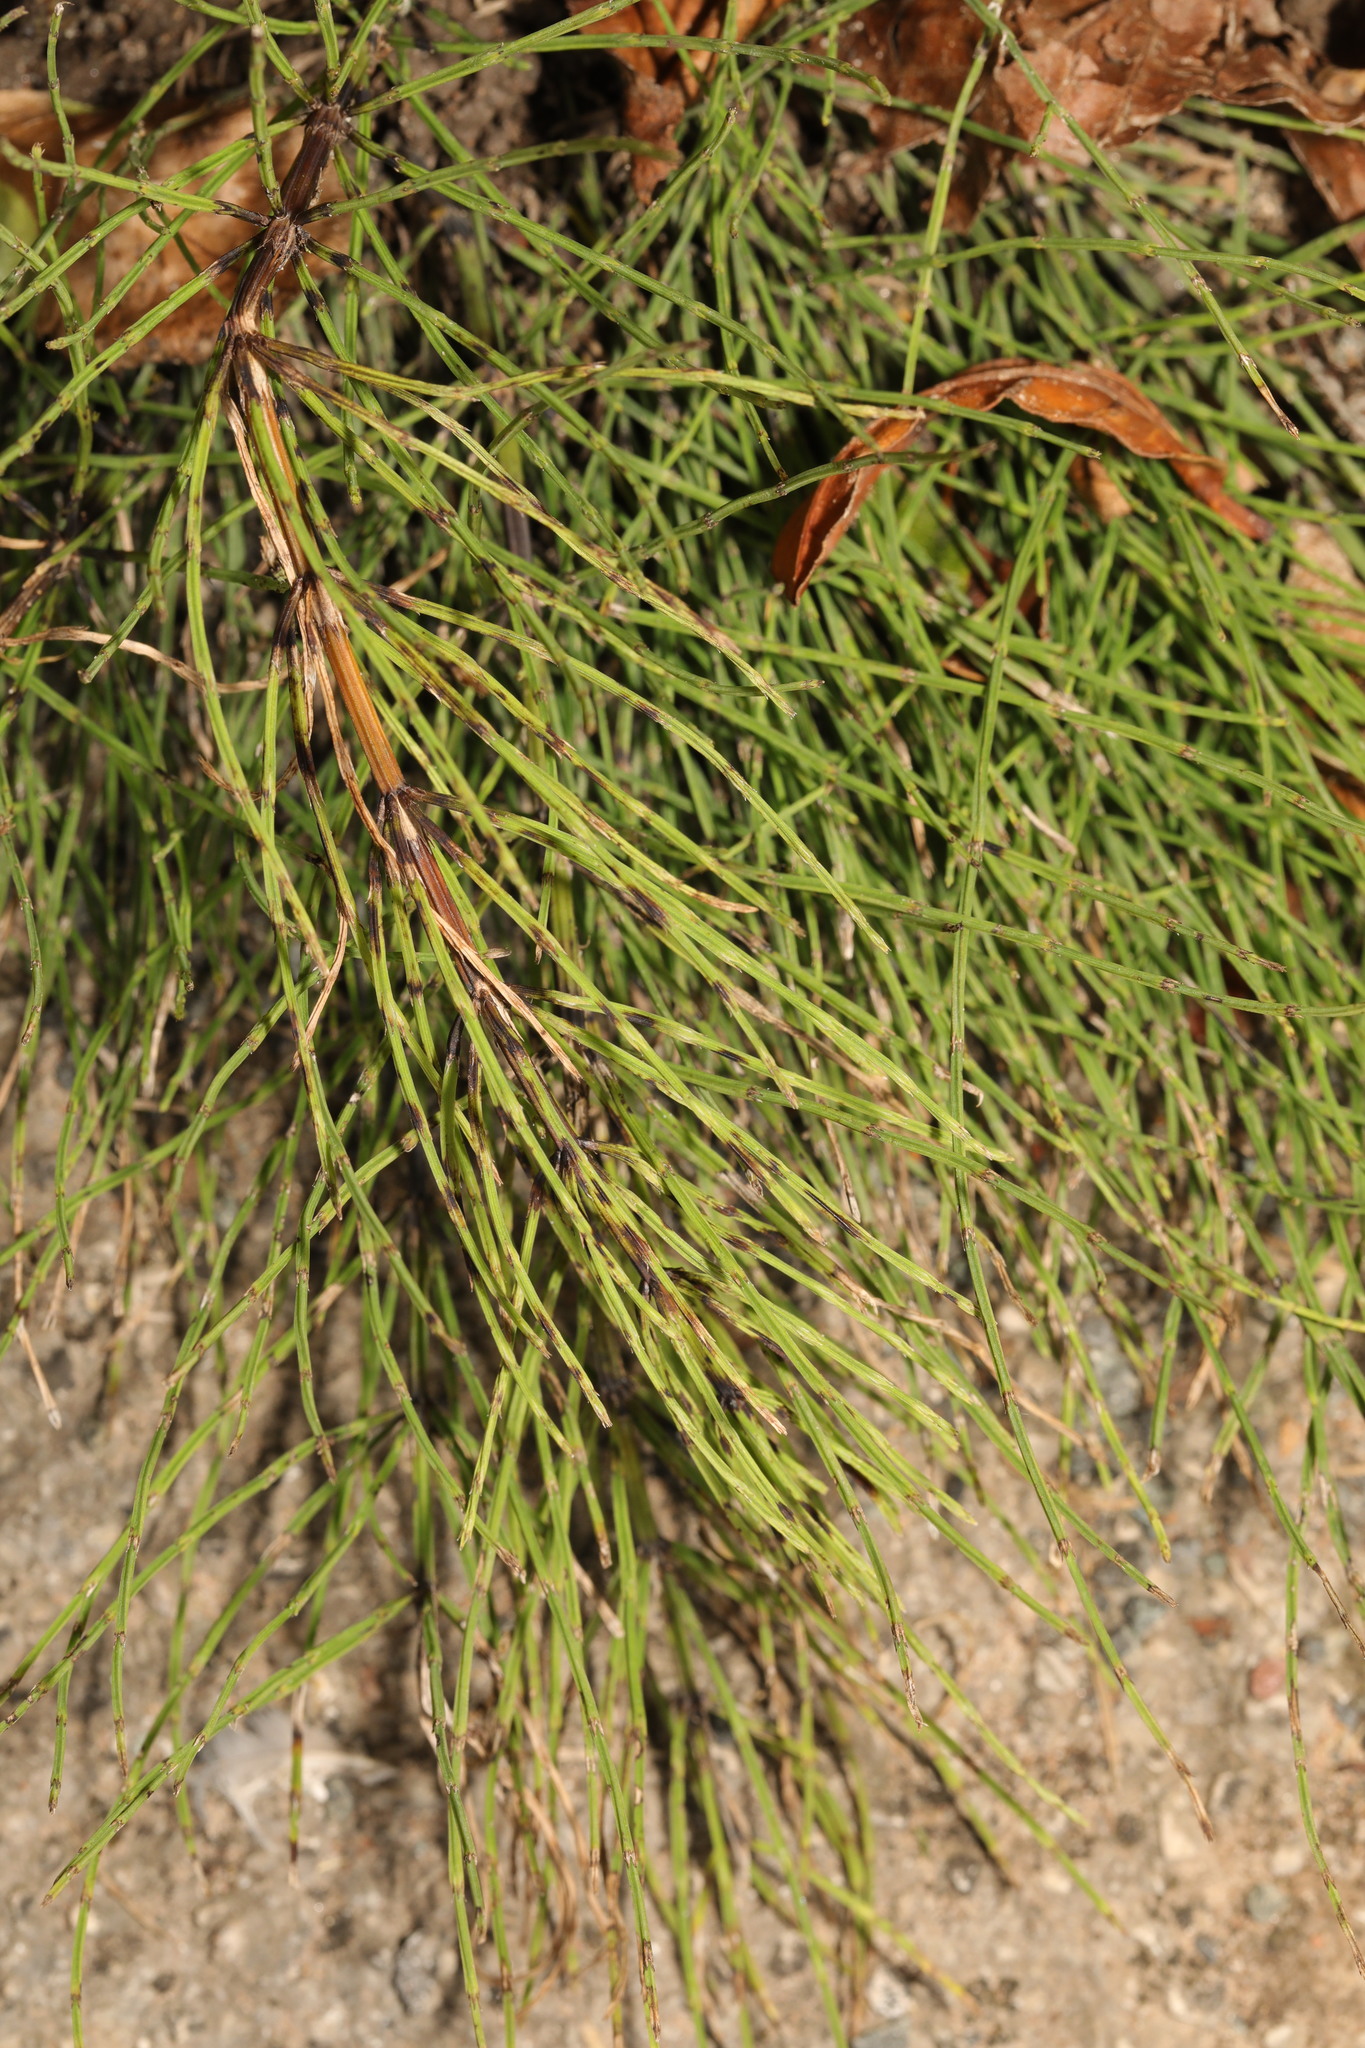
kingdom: Plantae
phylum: Tracheophyta
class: Polypodiopsida
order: Equisetales
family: Equisetaceae
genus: Equisetum
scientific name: Equisetum arvense
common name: Field horsetail
